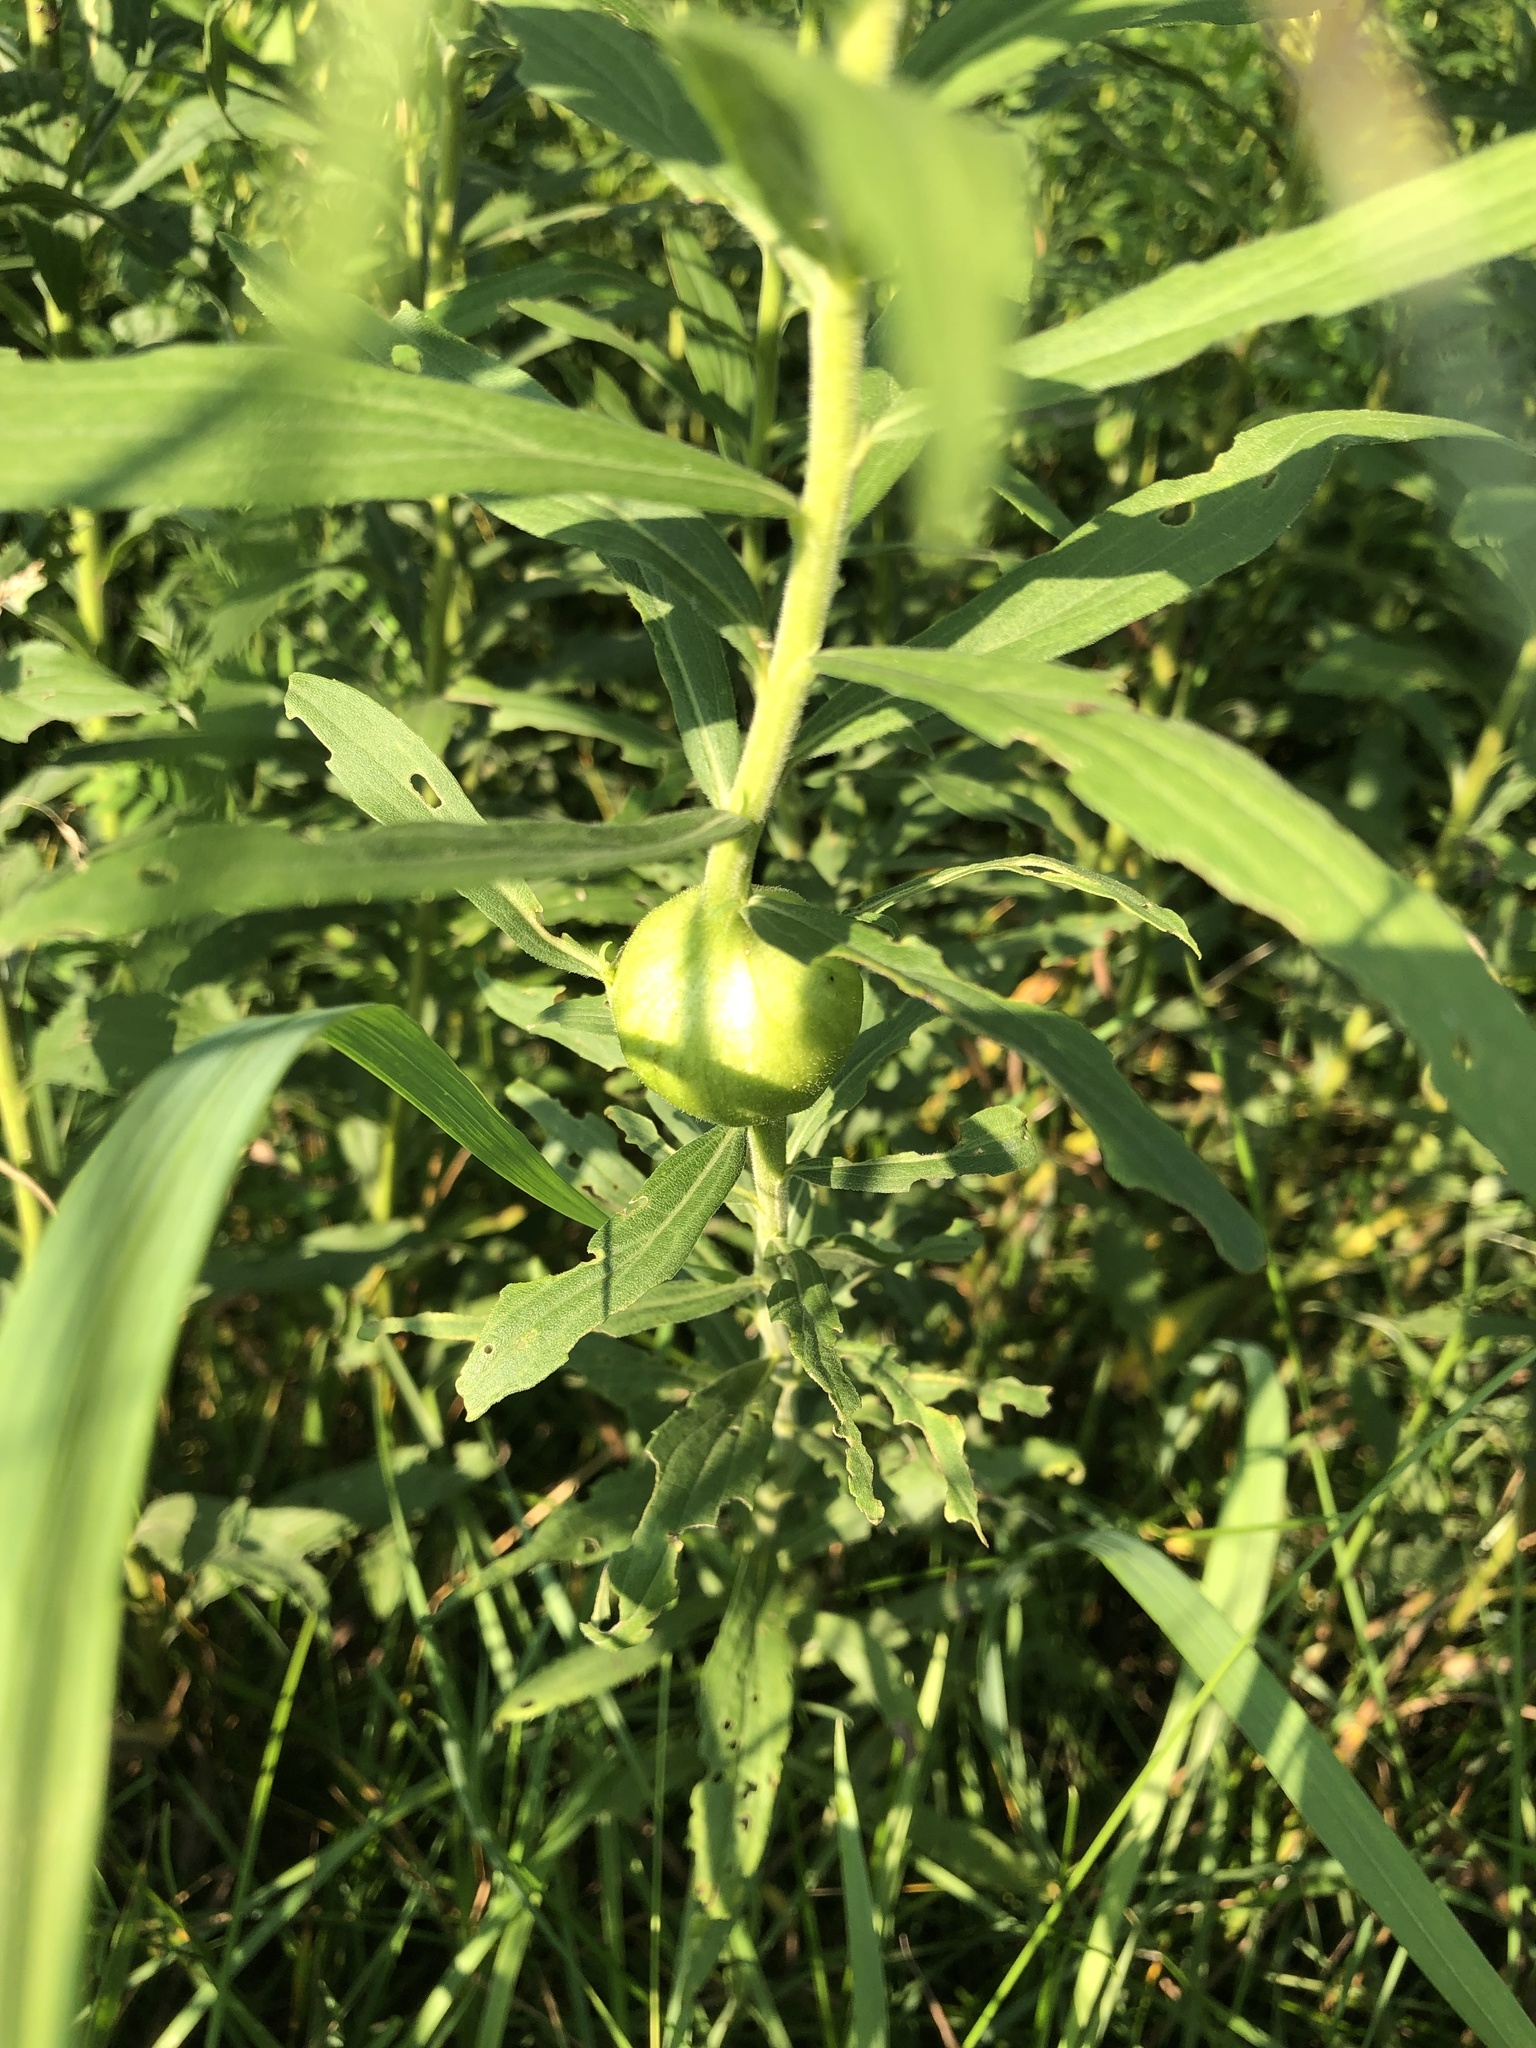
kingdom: Animalia
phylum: Arthropoda
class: Insecta
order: Diptera
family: Tephritidae
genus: Eurosta
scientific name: Eurosta solidaginis
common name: Goldenrod gall fly
